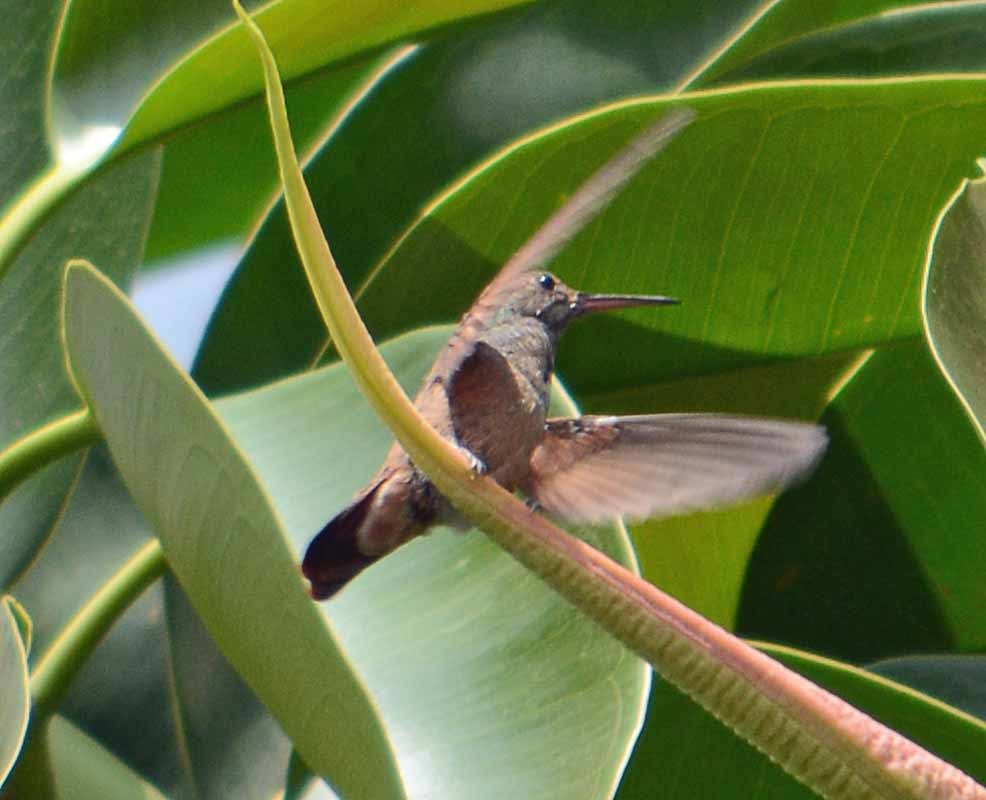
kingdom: Animalia
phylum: Chordata
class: Aves
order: Apodiformes
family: Trochilidae
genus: Saucerottia
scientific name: Saucerottia beryllina
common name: Berylline hummingbird
